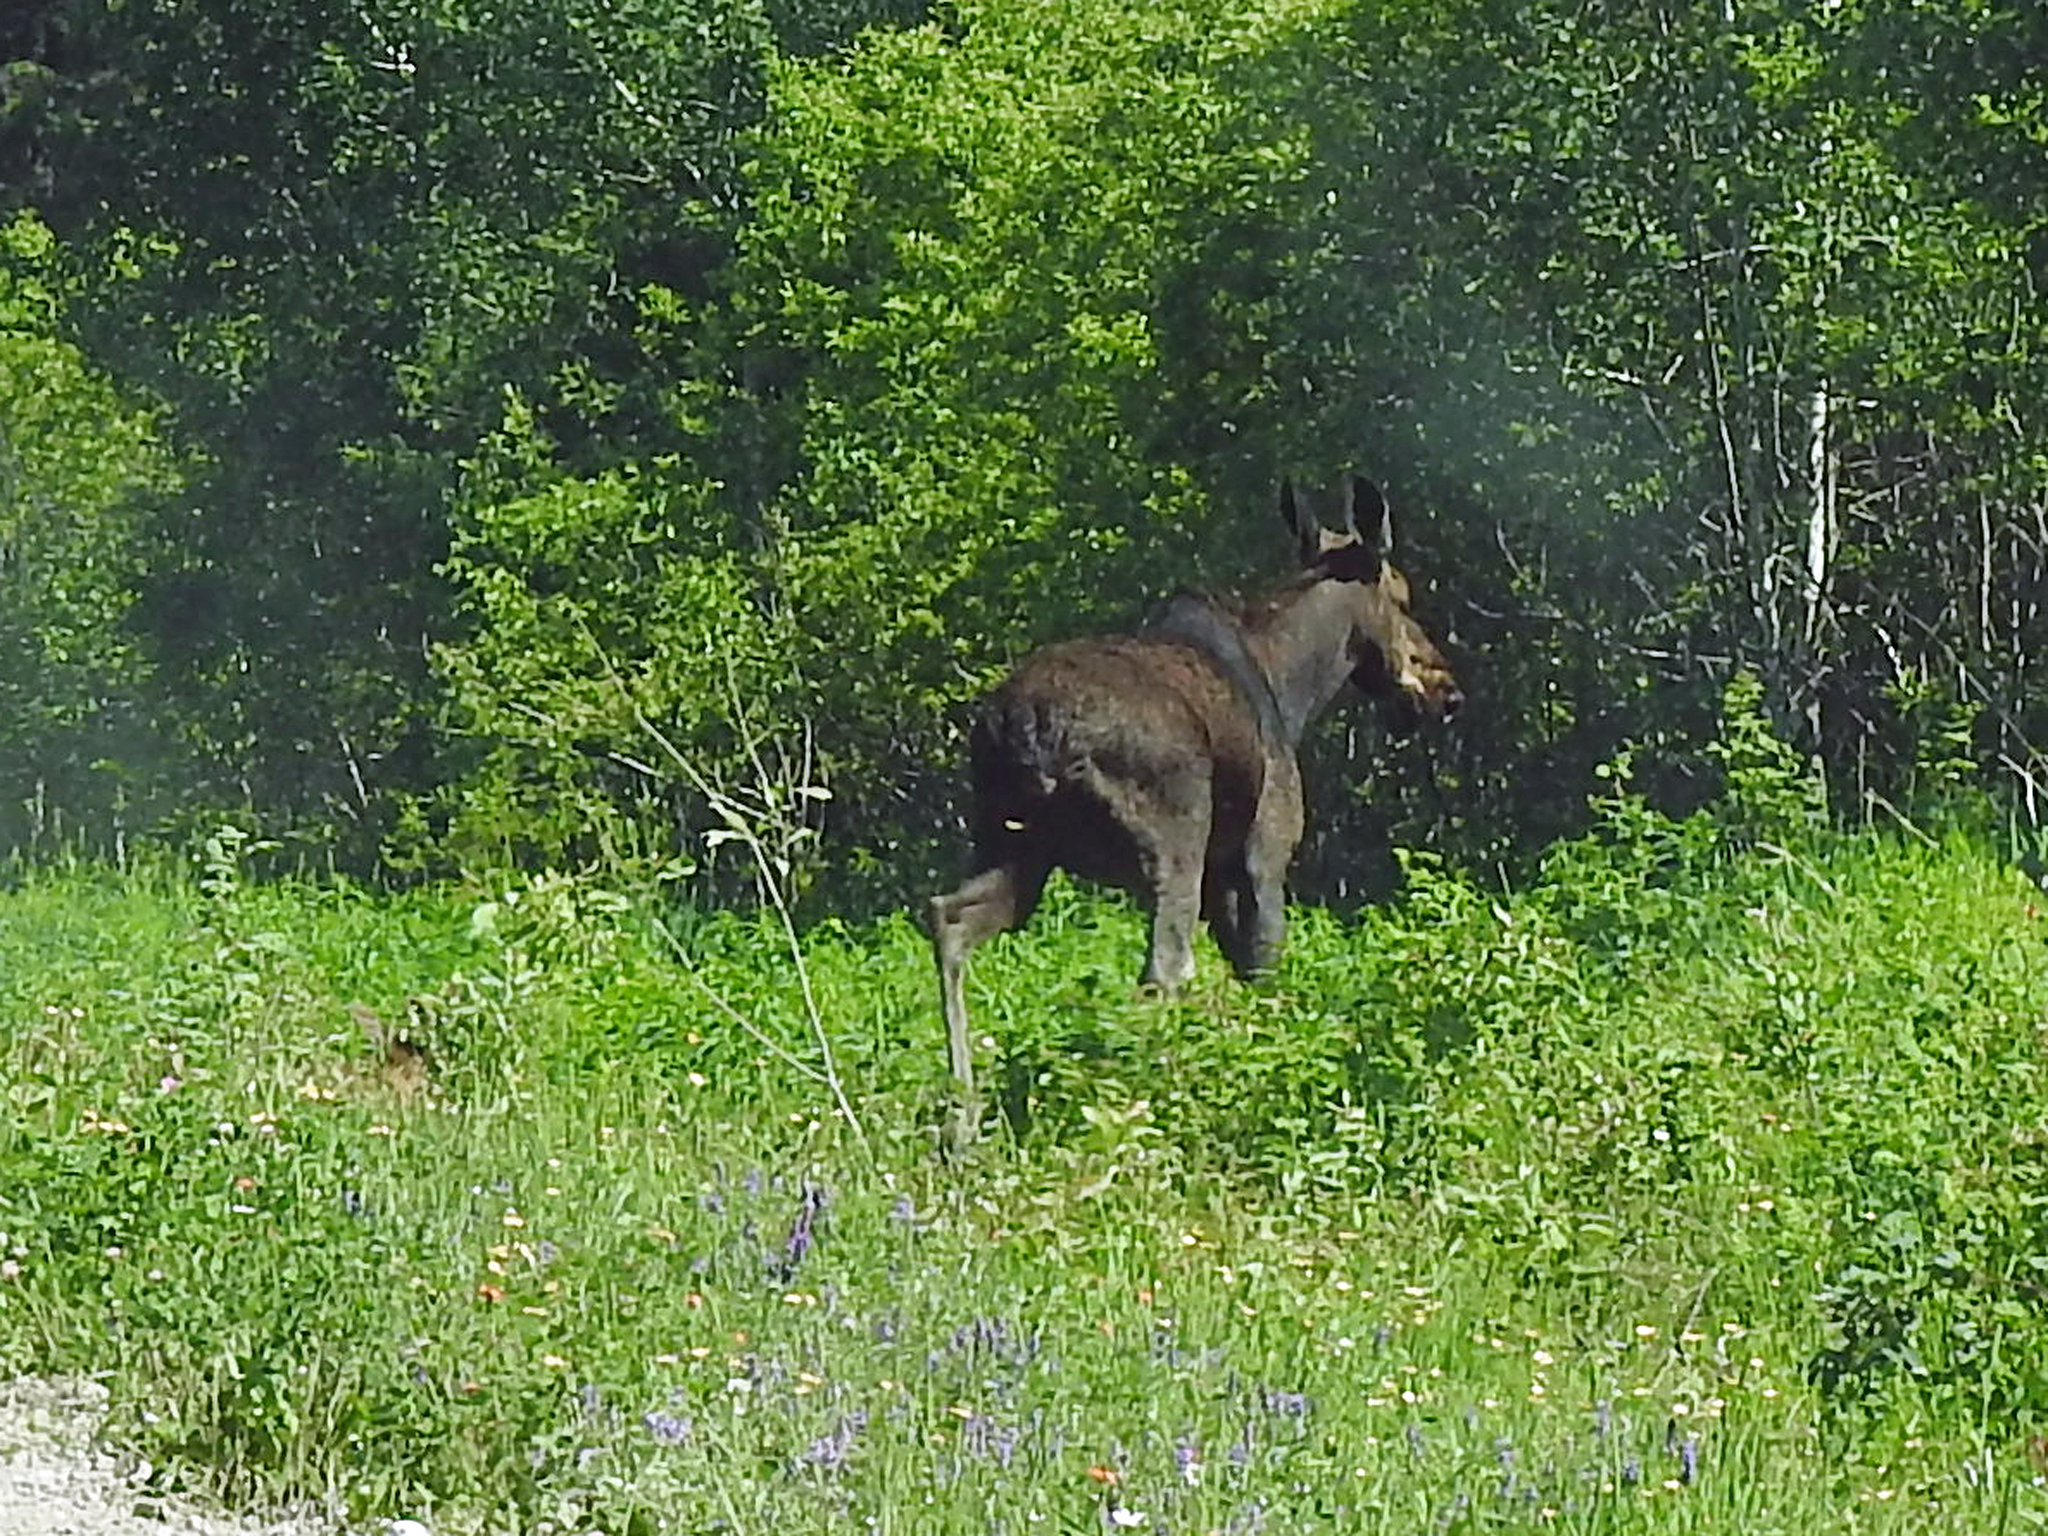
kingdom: Animalia
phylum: Chordata
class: Mammalia
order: Artiodactyla
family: Cervidae
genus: Alces
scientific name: Alces alces
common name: Moose
